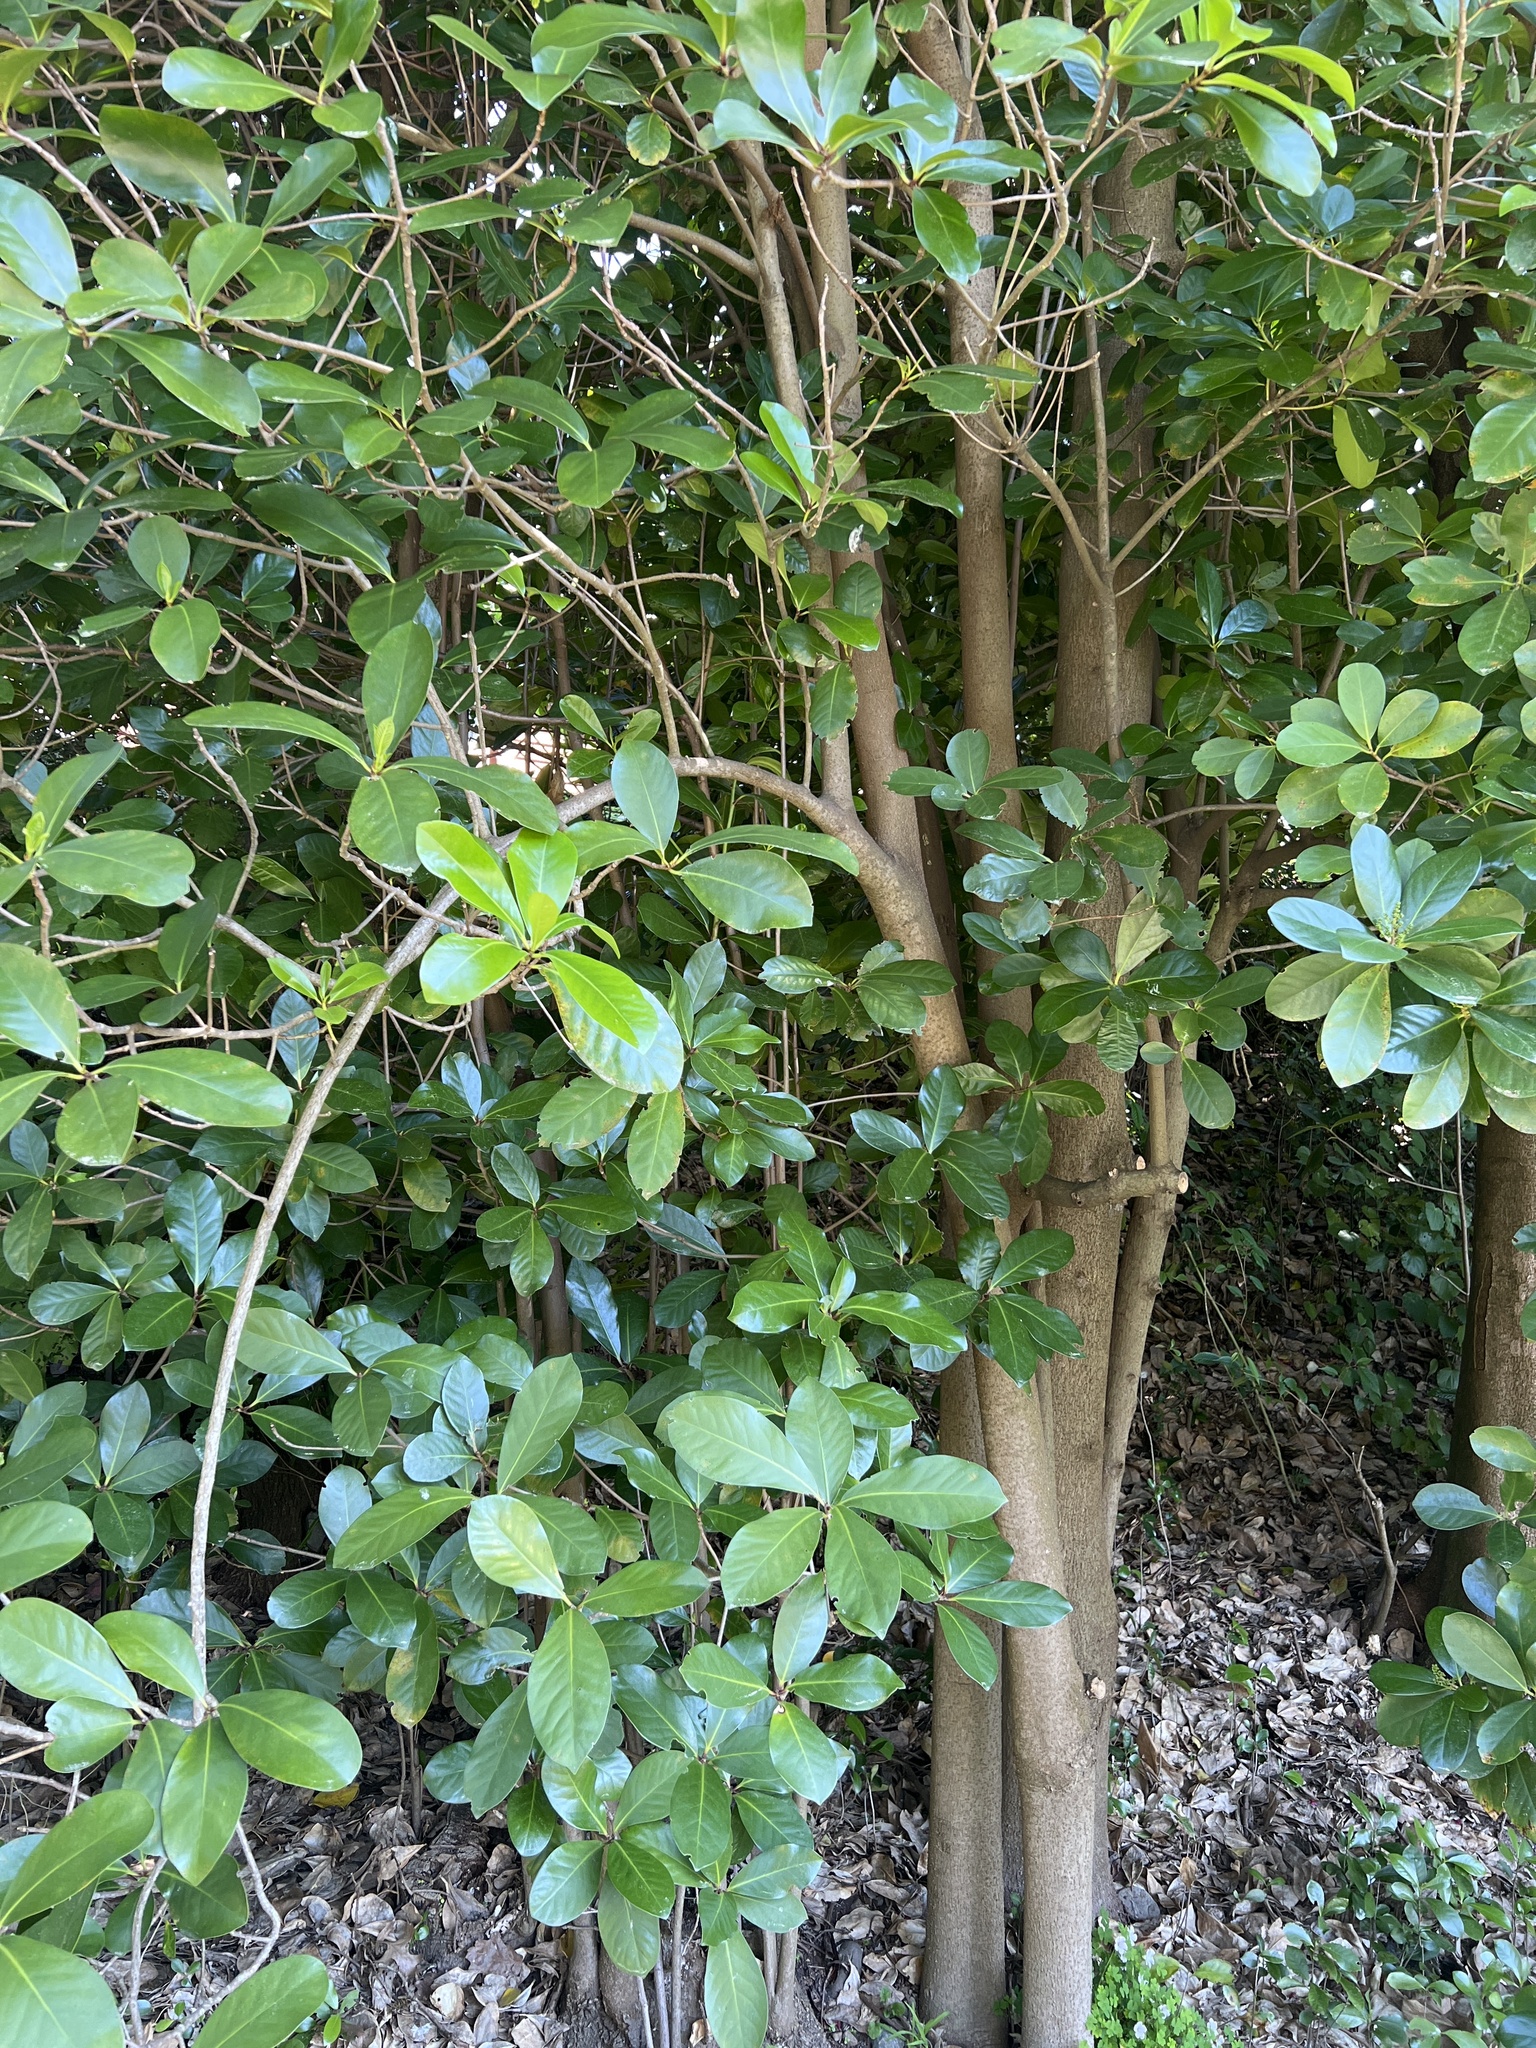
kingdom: Plantae
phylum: Tracheophyta
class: Magnoliopsida
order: Cucurbitales
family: Corynocarpaceae
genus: Corynocarpus
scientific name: Corynocarpus laevigatus
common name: New zealand laurel
